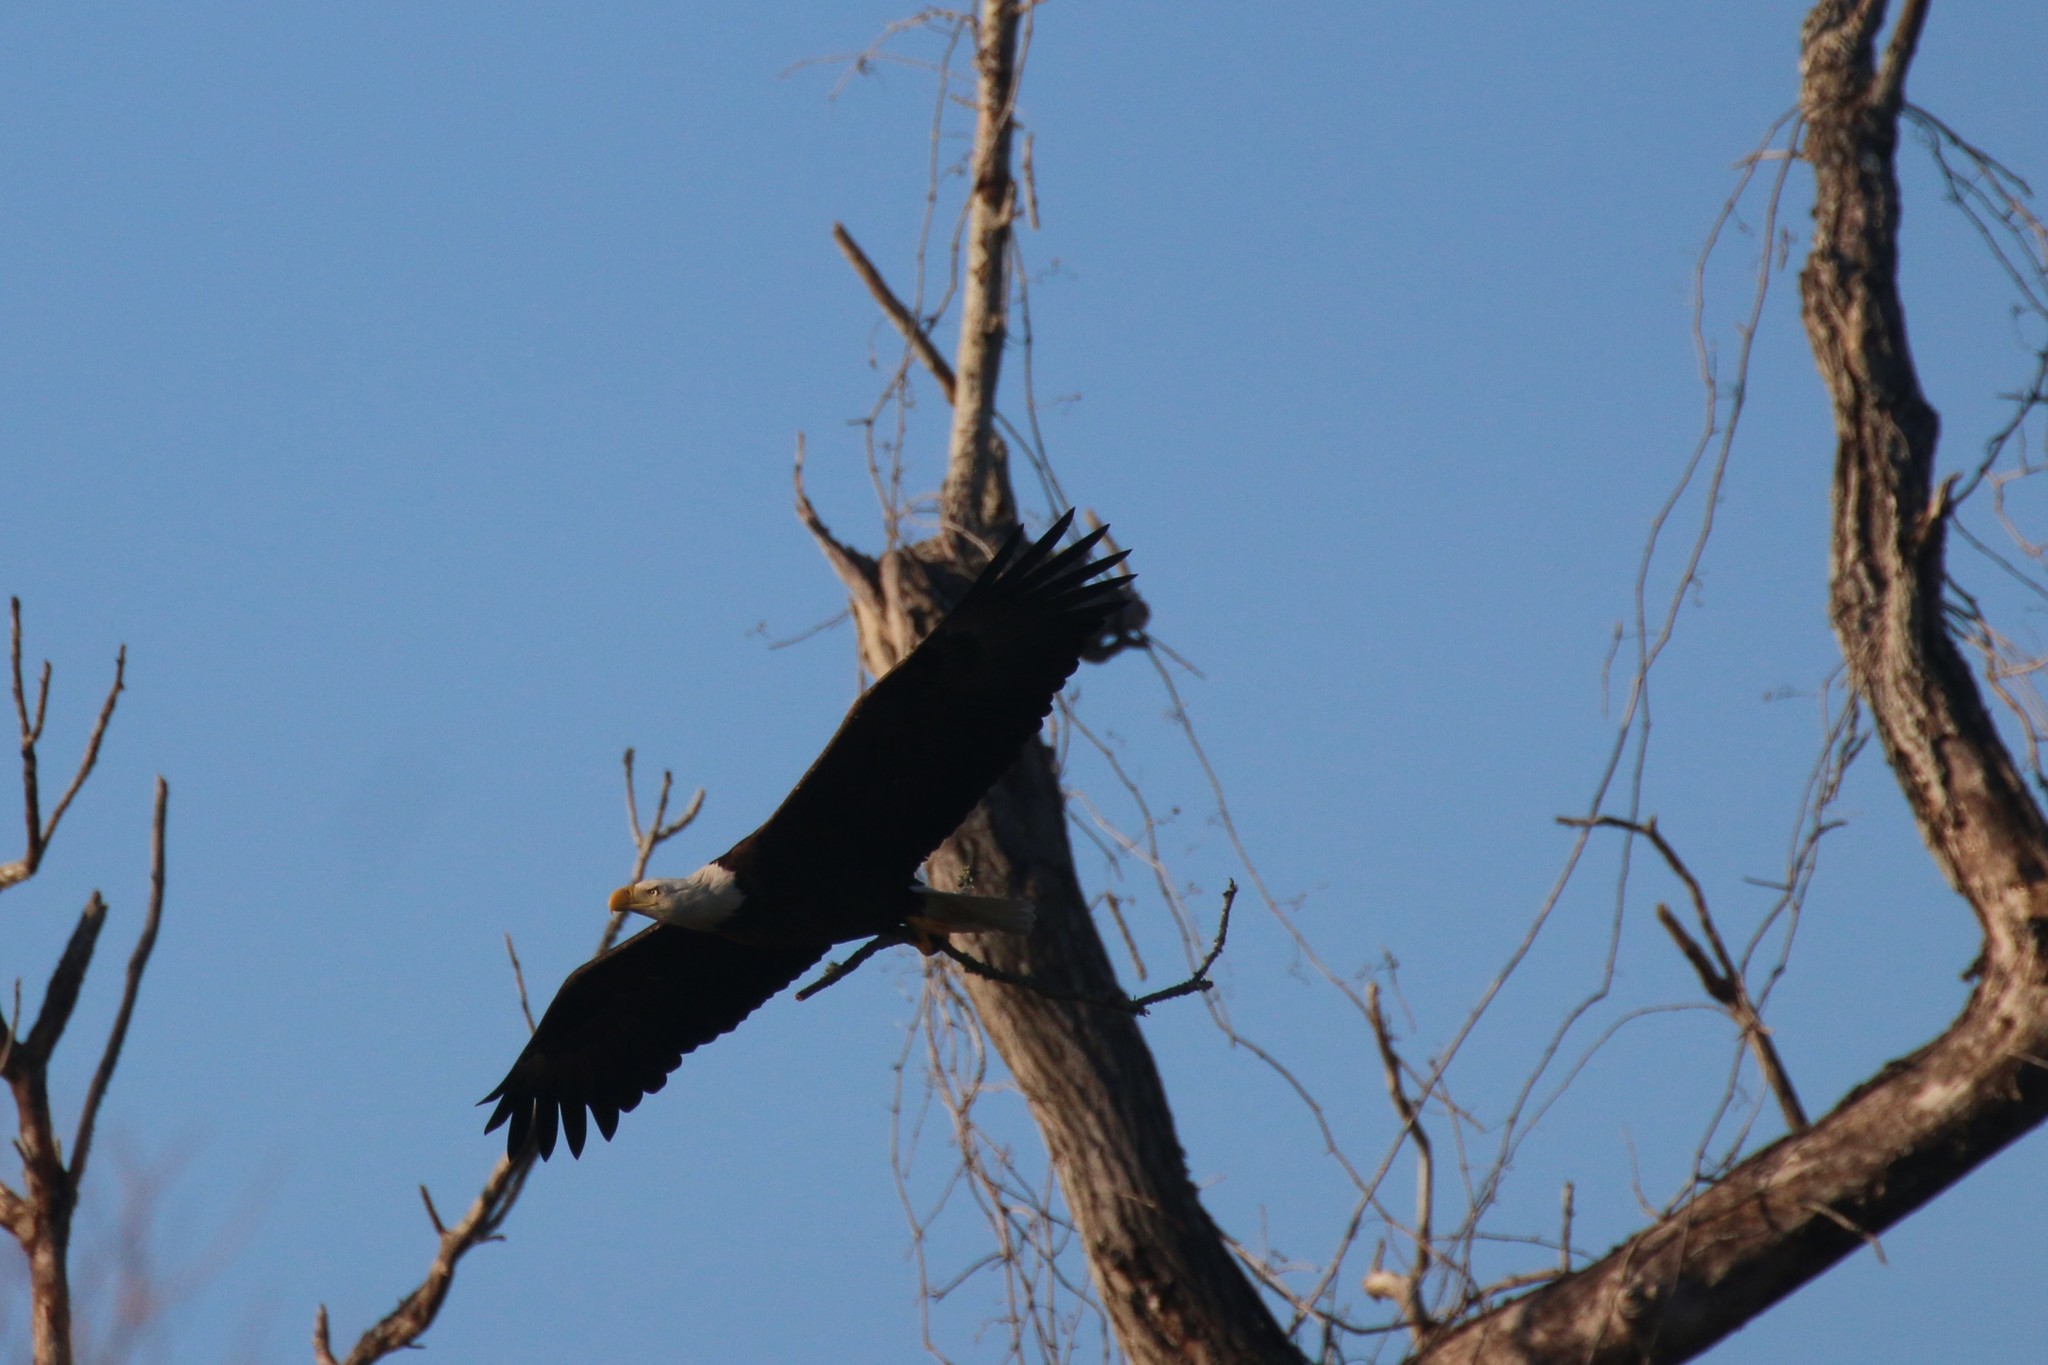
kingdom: Animalia
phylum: Chordata
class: Aves
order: Accipitriformes
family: Accipitridae
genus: Haliaeetus
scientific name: Haliaeetus leucocephalus
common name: Bald eagle
